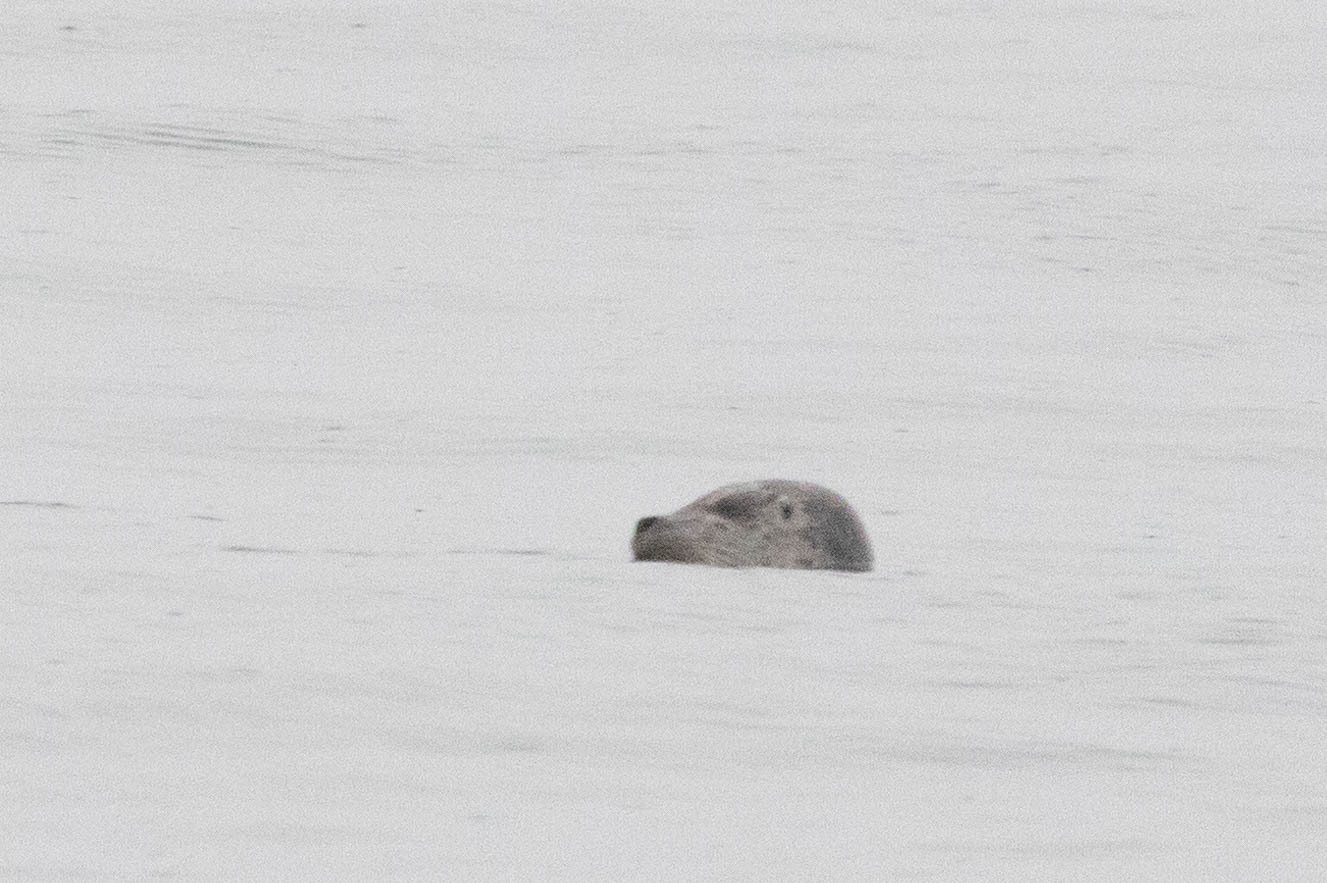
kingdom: Animalia
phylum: Chordata
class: Mammalia
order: Carnivora
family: Phocidae
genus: Phoca
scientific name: Phoca vitulina
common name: Harbor seal
